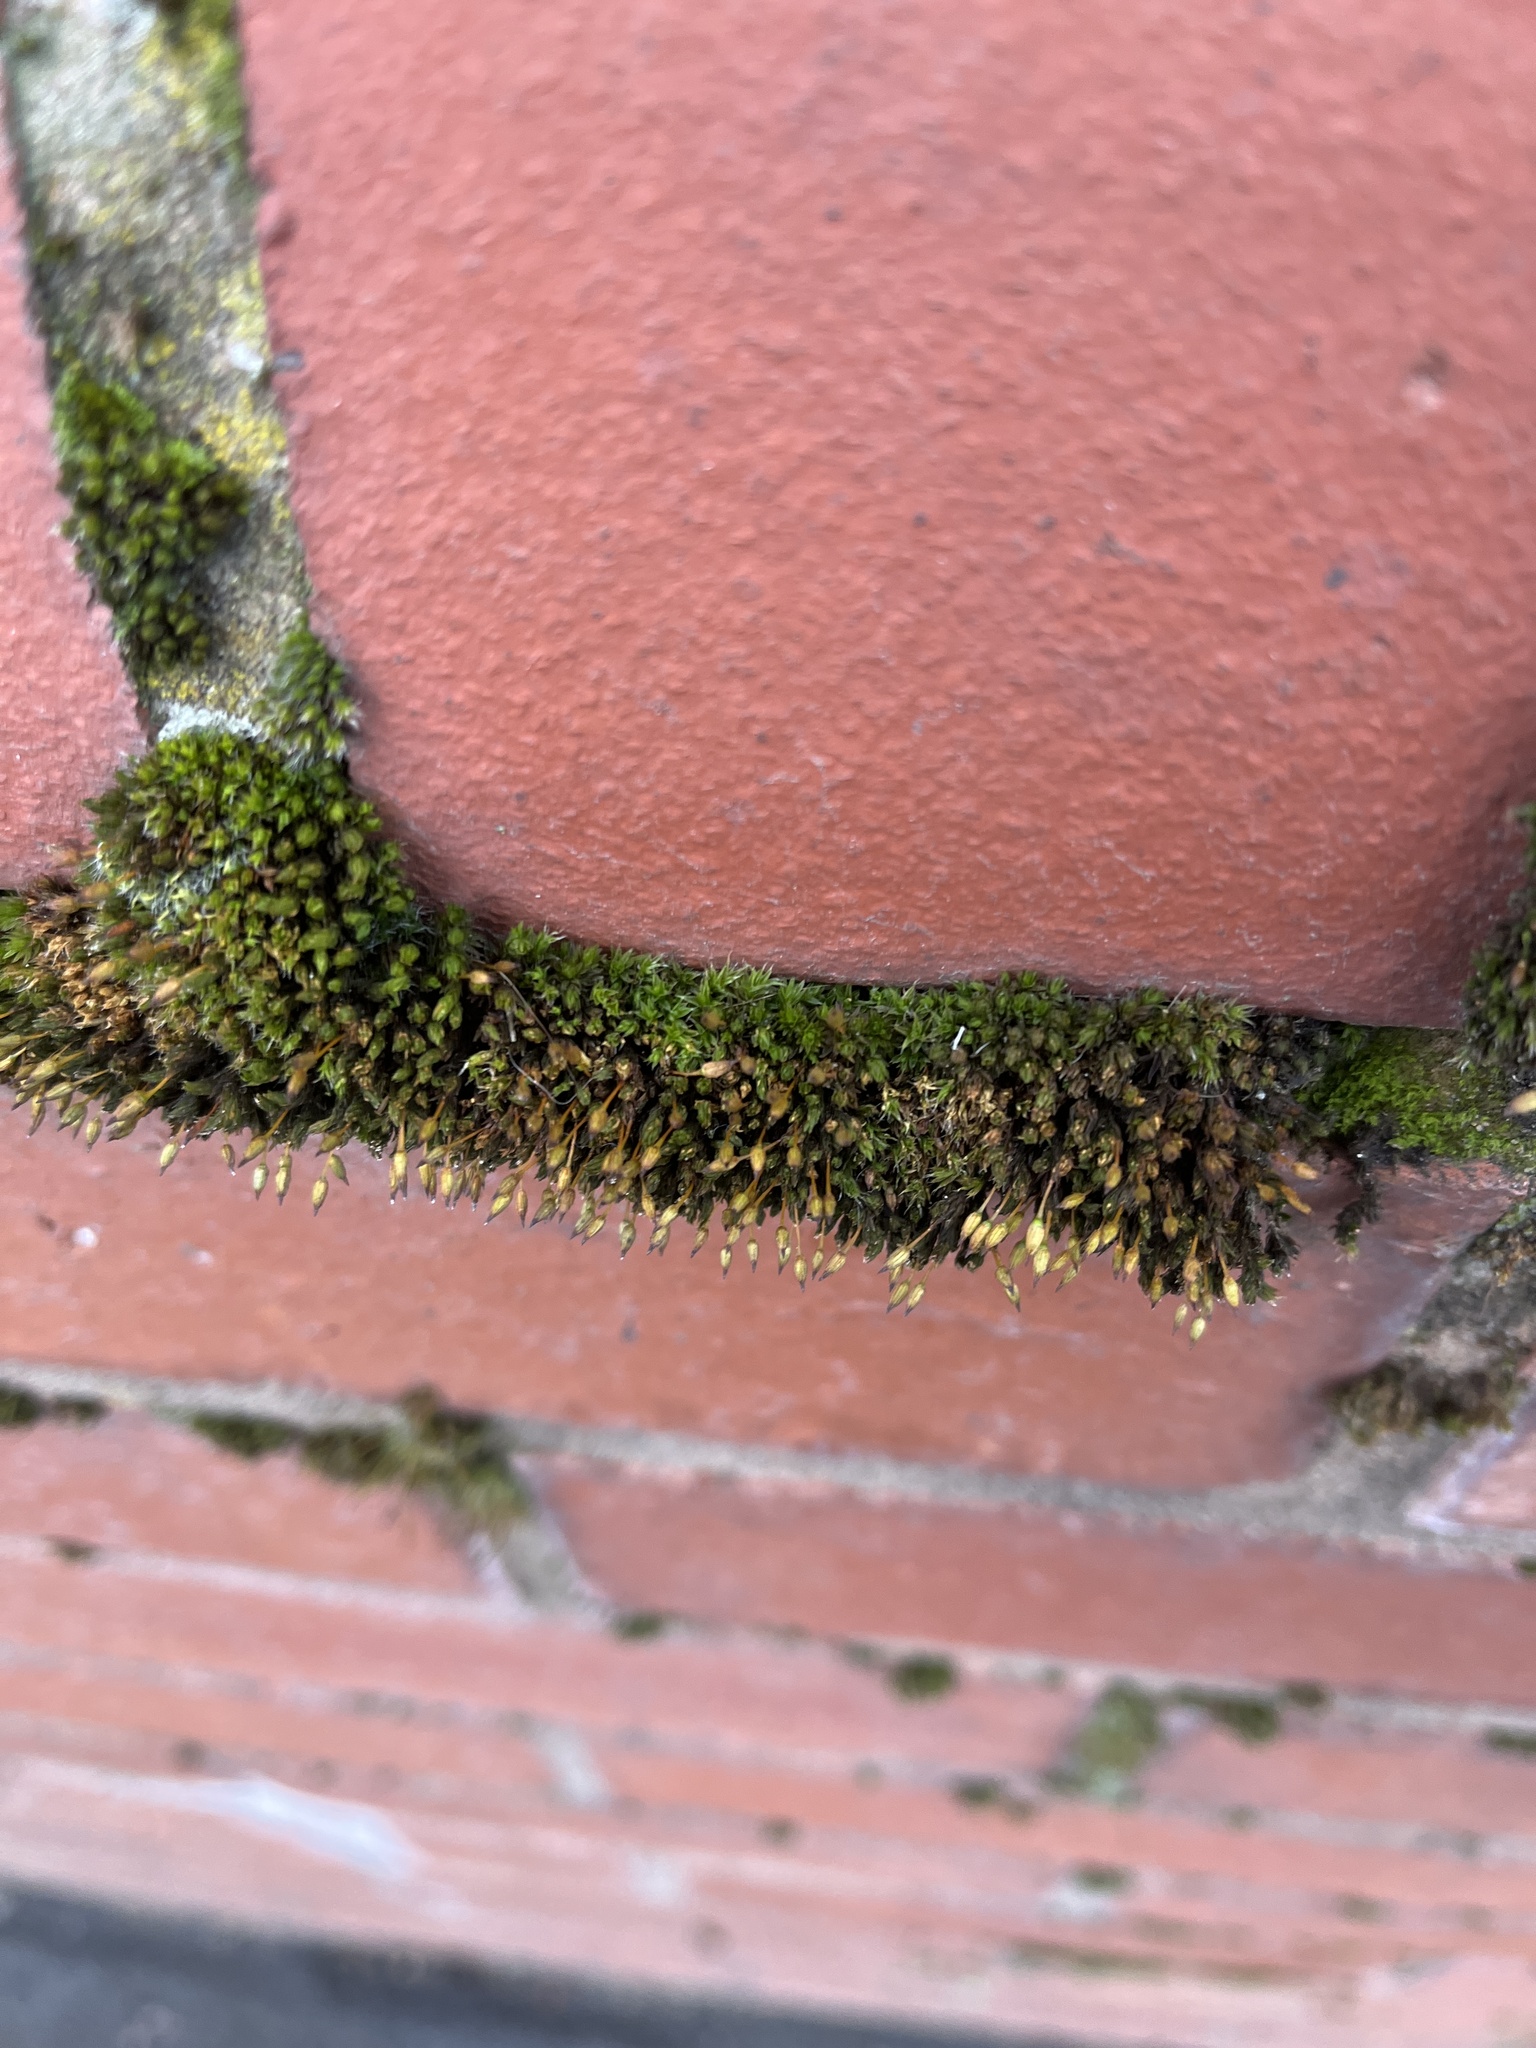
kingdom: Plantae
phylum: Bryophyta
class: Bryopsida
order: Orthotrichales
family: Orthotrichaceae
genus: Orthotrichum
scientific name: Orthotrichum anomalum
